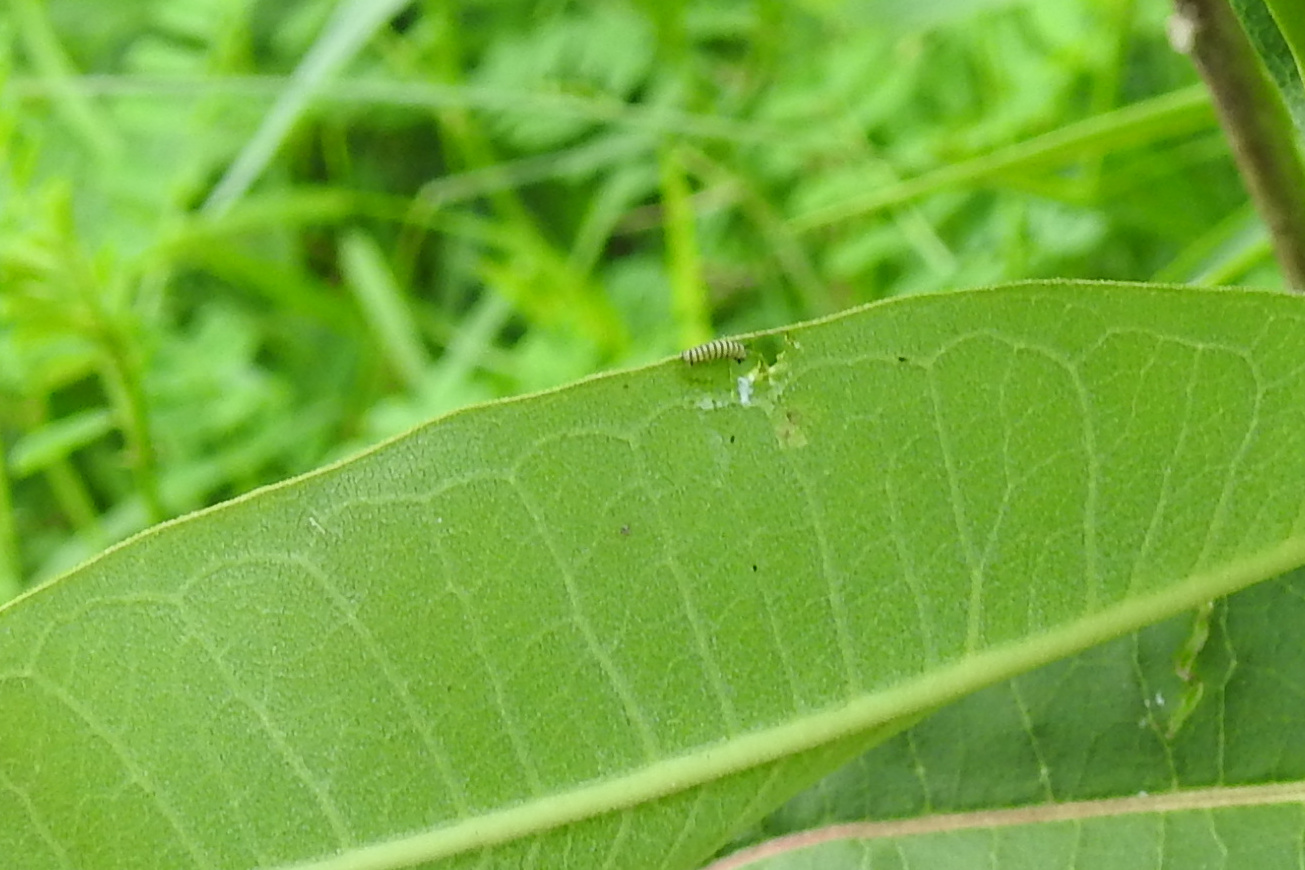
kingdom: Animalia
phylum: Arthropoda
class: Insecta
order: Lepidoptera
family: Nymphalidae
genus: Danaus
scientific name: Danaus plexippus
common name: Monarch
